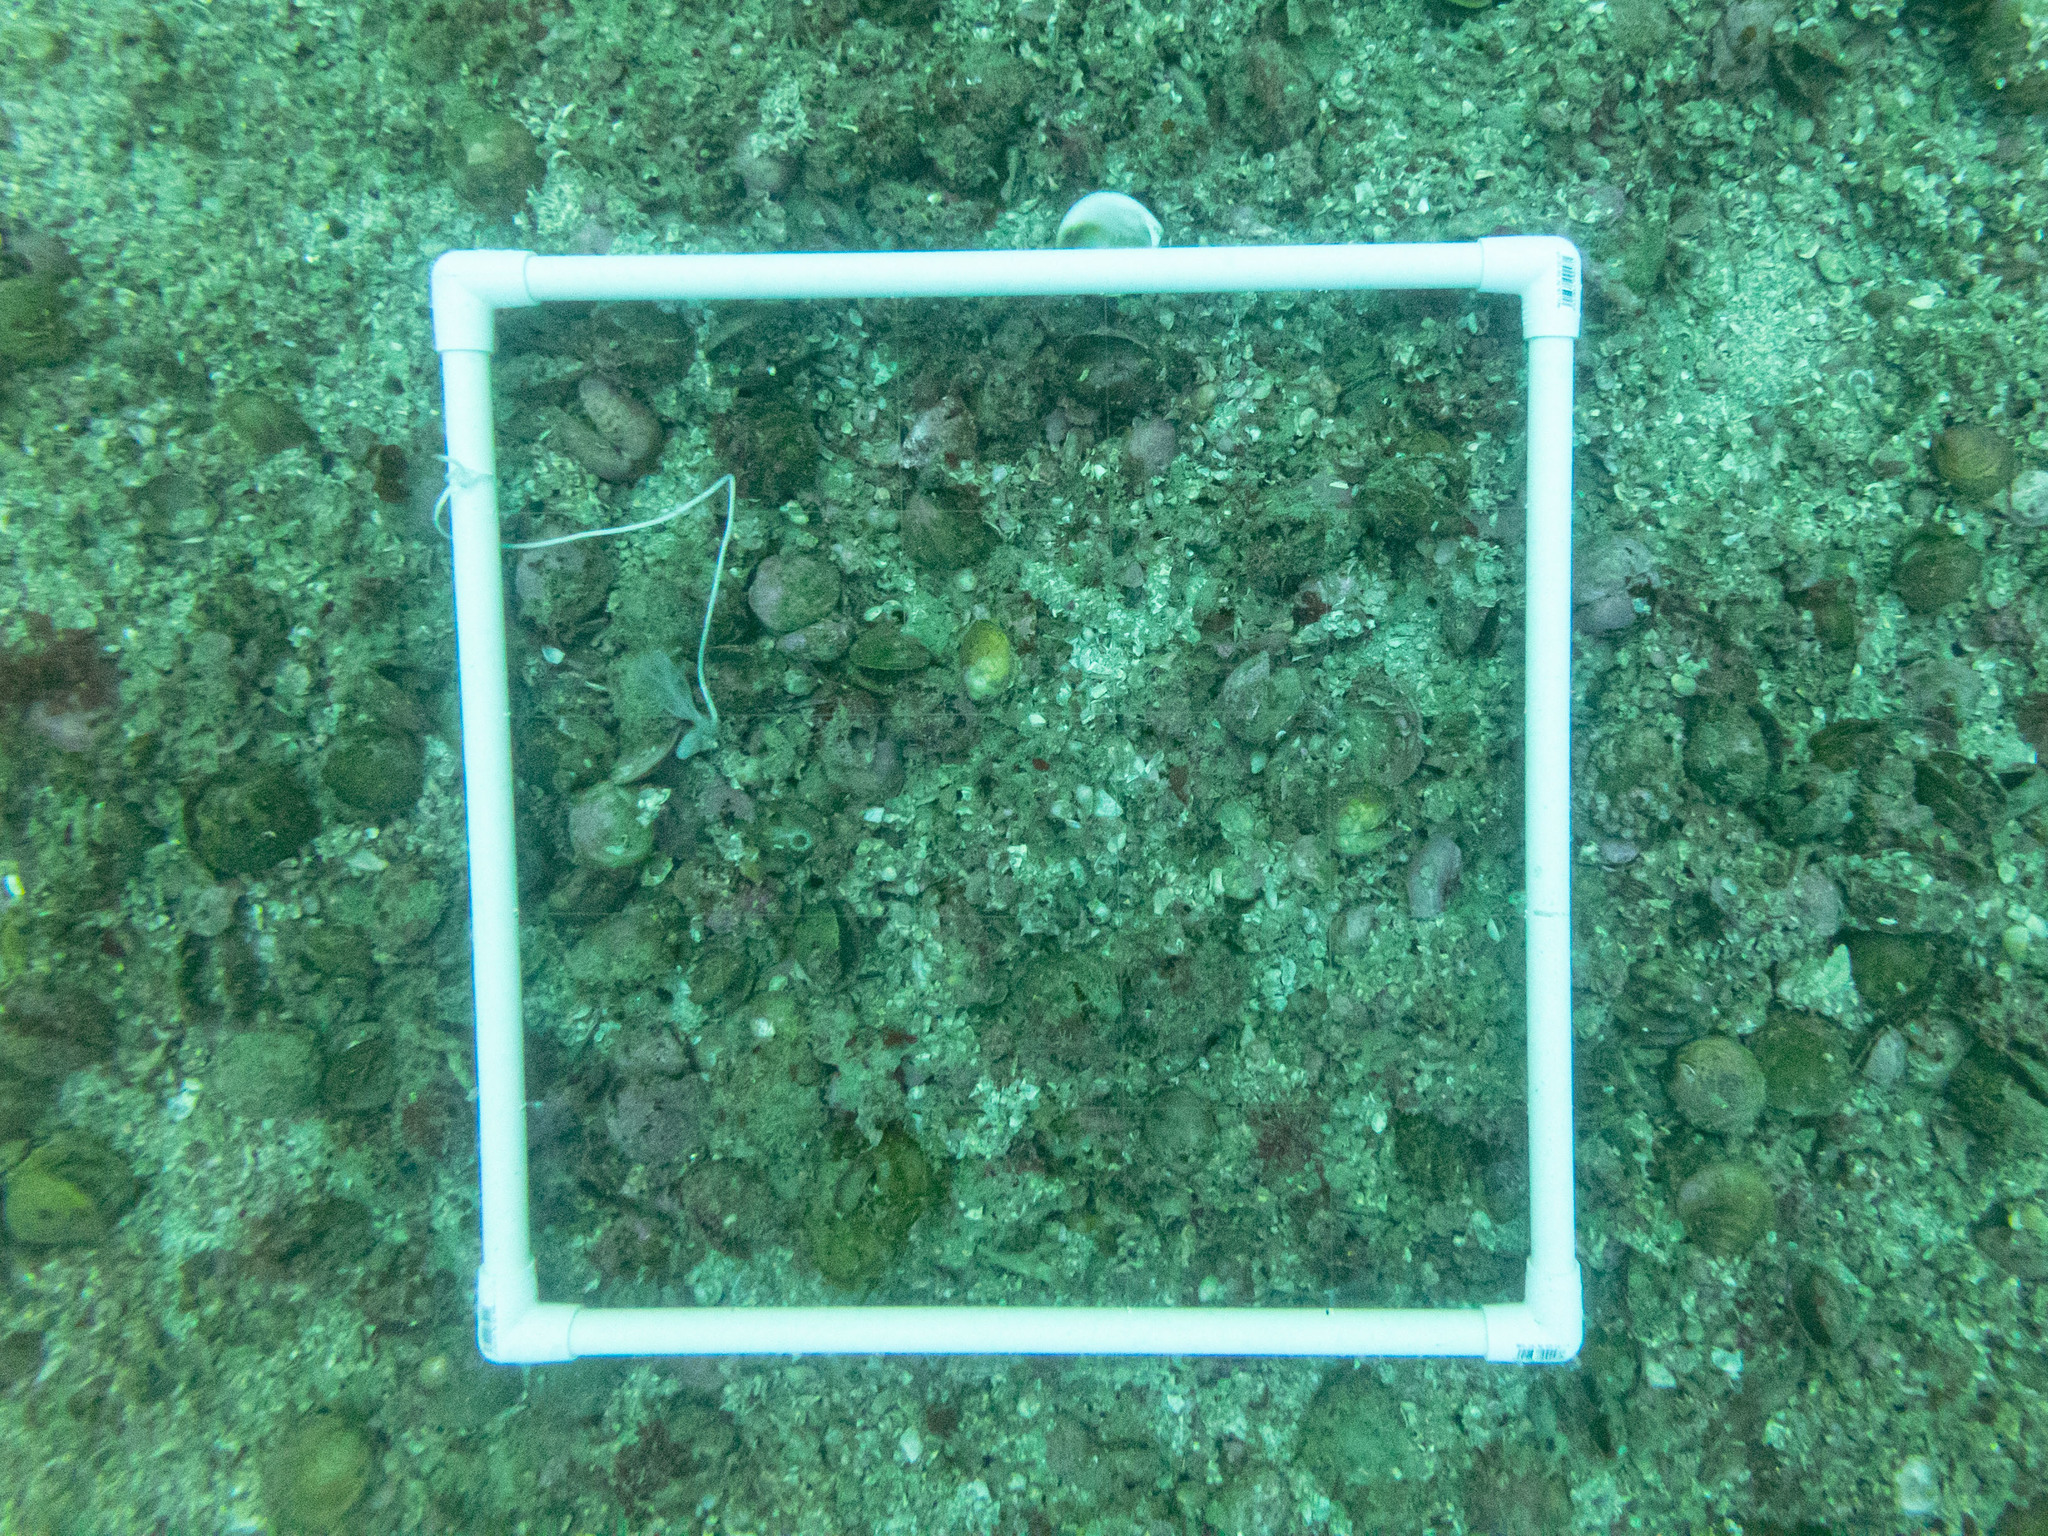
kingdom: Animalia
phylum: Mollusca
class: Bivalvia
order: Arcida
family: Glycymerididae
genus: Tucetona
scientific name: Tucetona laticostata
